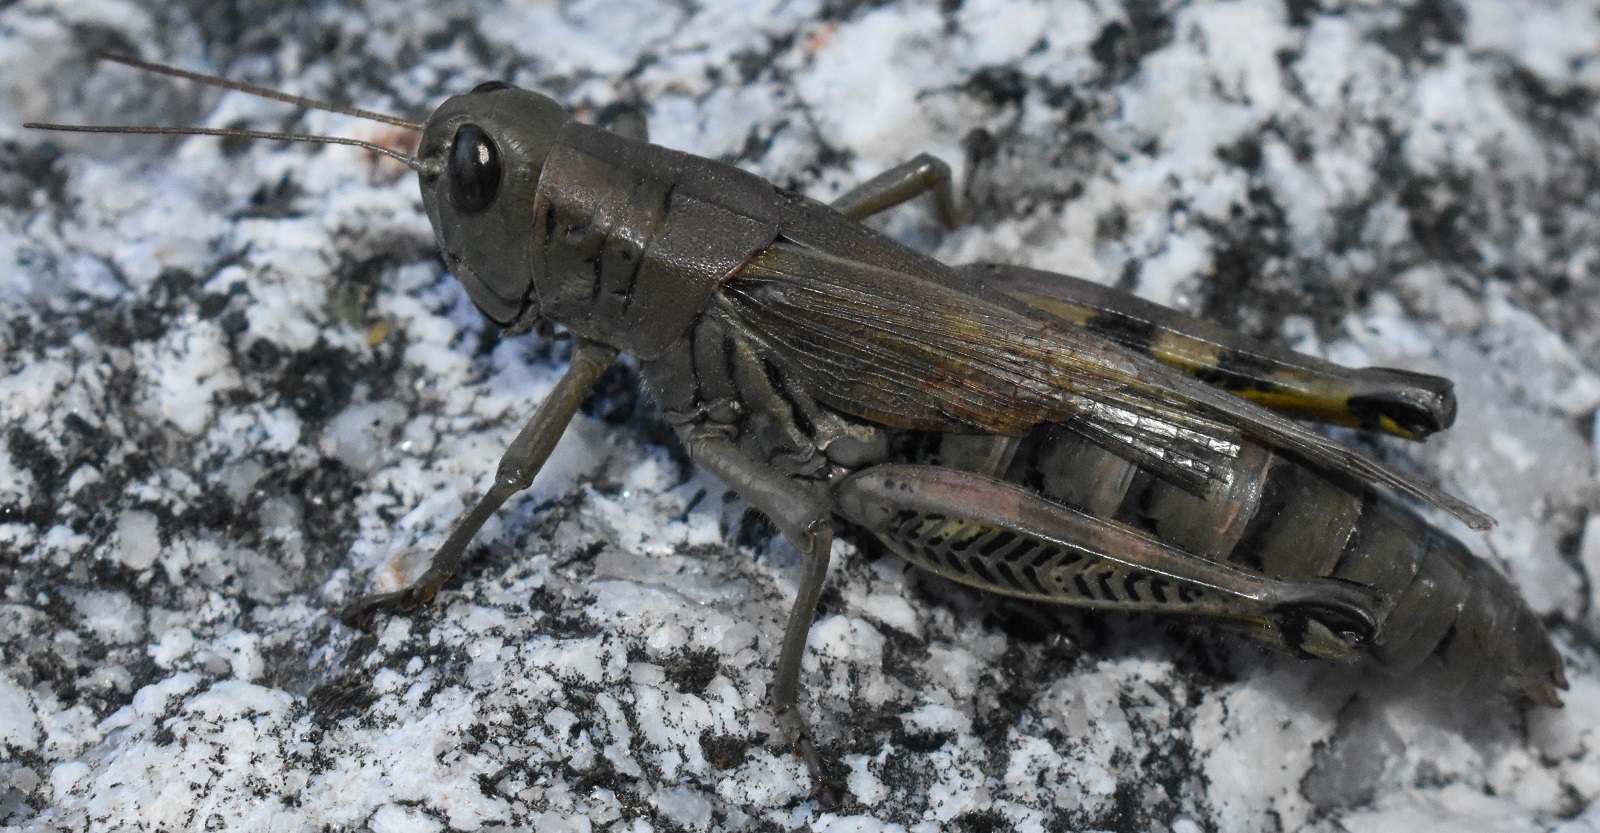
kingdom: Animalia
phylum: Arthropoda
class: Insecta
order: Orthoptera
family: Acrididae
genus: Melanoplus
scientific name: Melanoplus differentialis
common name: Differential grasshopper
